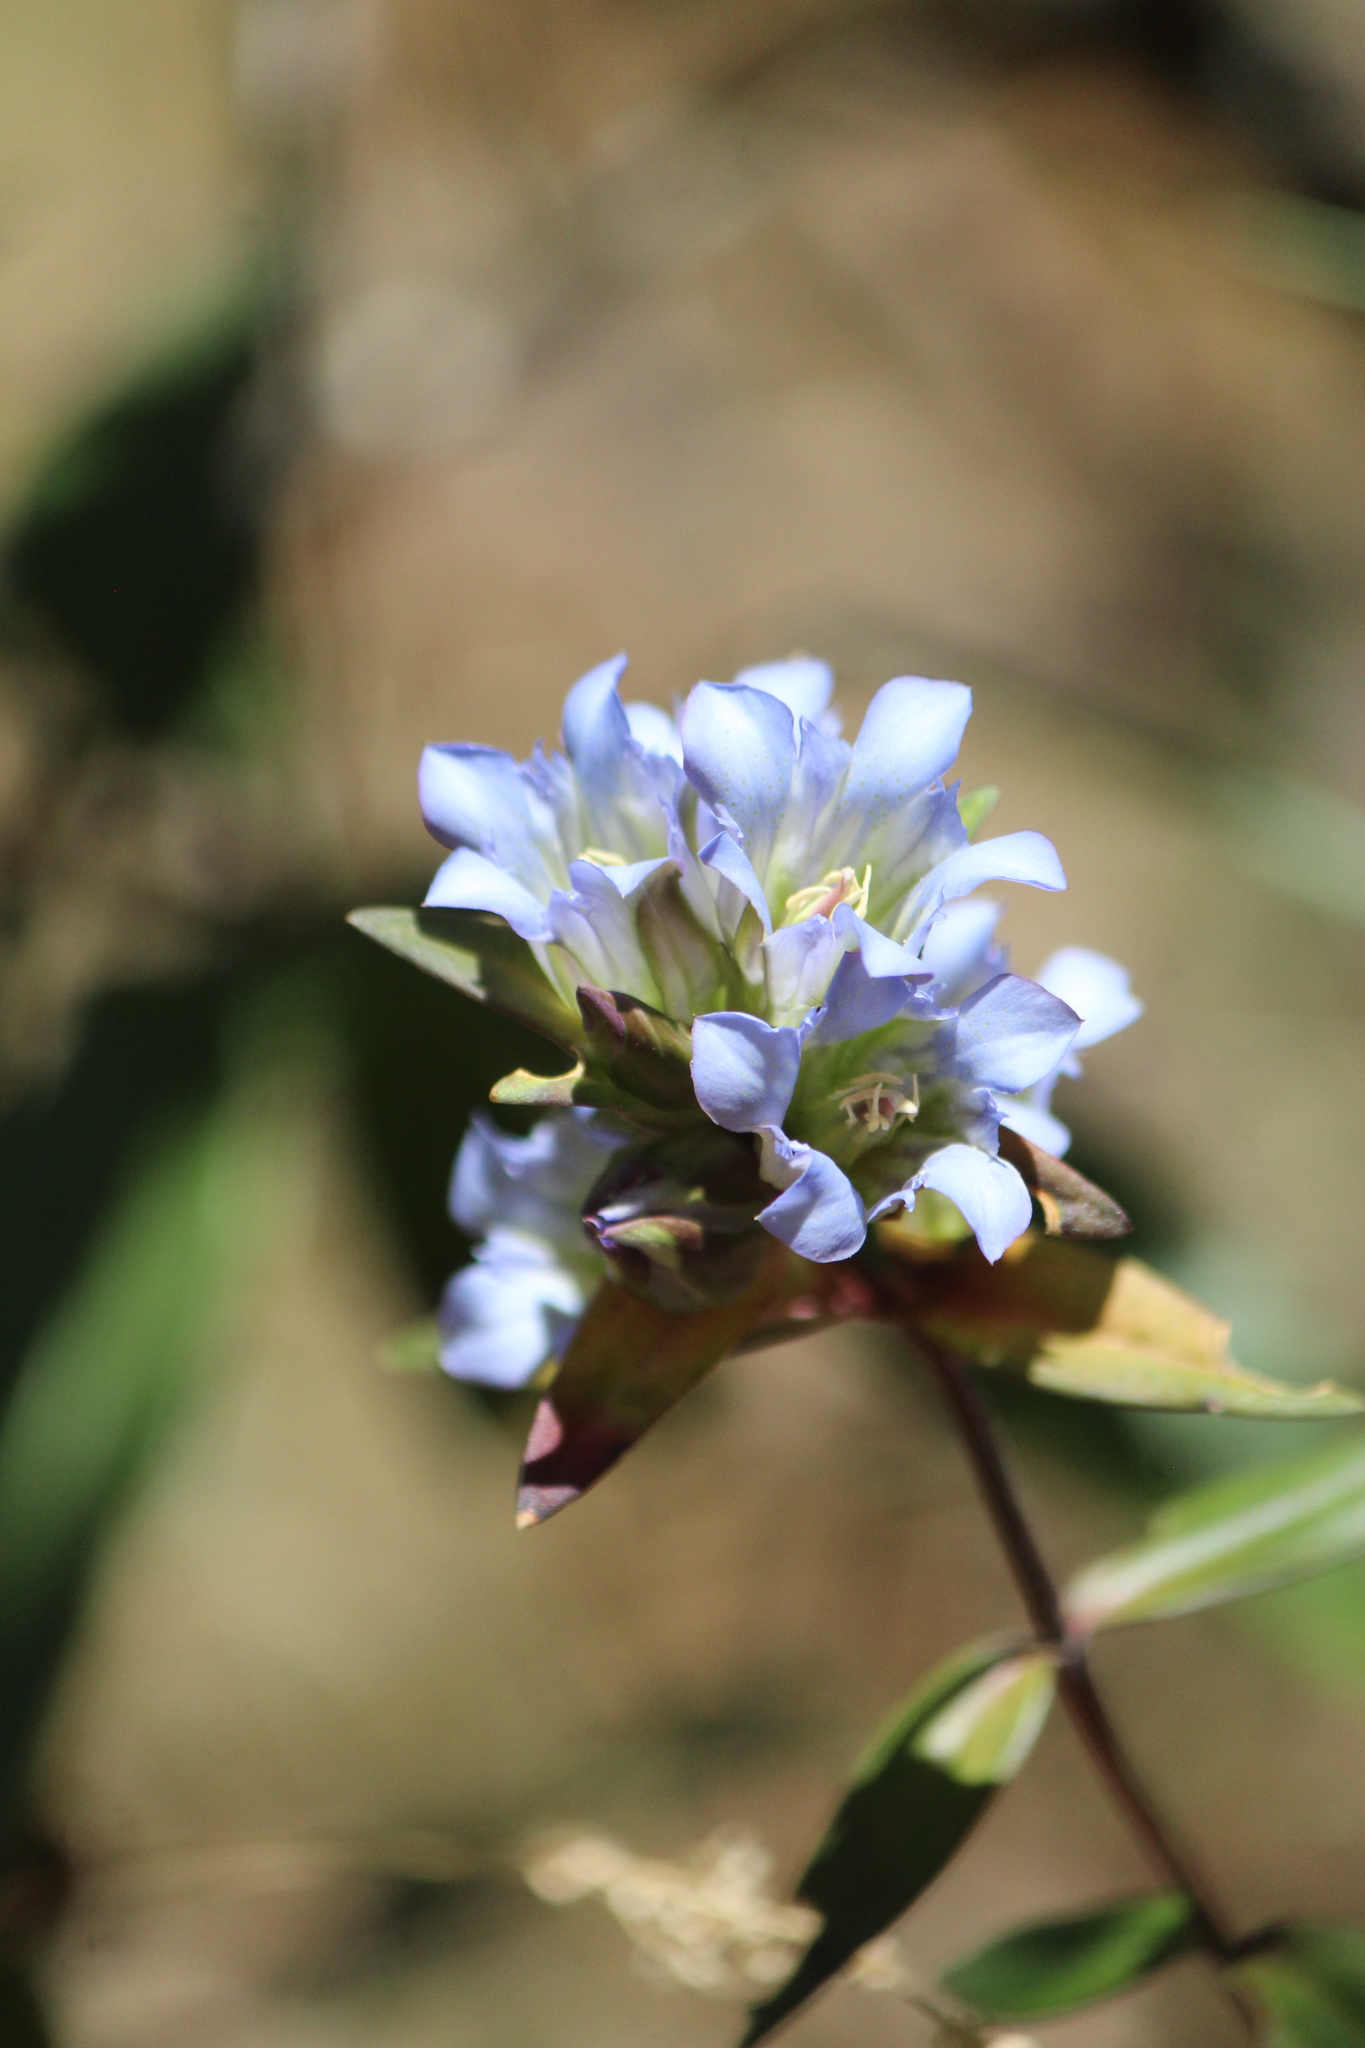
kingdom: Plantae
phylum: Tracheophyta
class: Magnoliopsida
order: Gentianales
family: Gentianaceae
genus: Gentiana
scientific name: Gentiana spathacea
